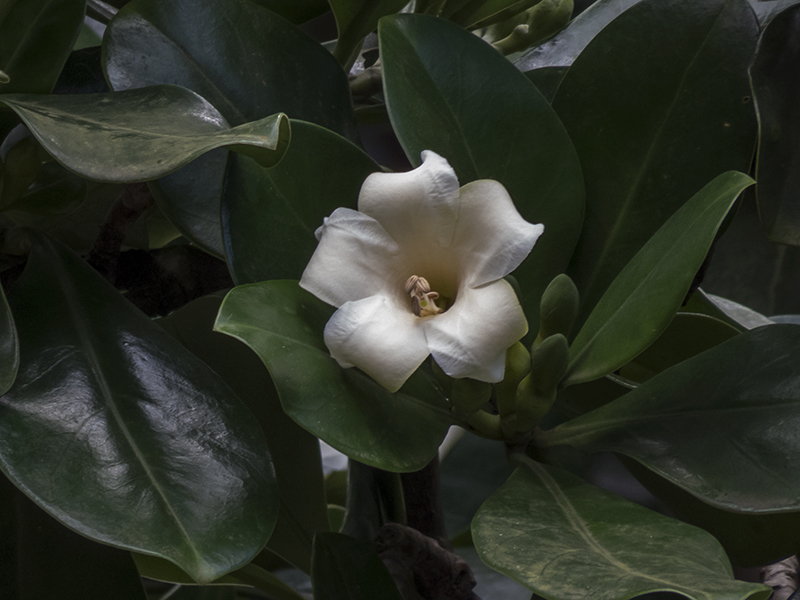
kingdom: Plantae
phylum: Tracheophyta
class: Magnoliopsida
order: Gentianales
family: Gentianaceae
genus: Fagraea
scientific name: Fagraea ceilanica
